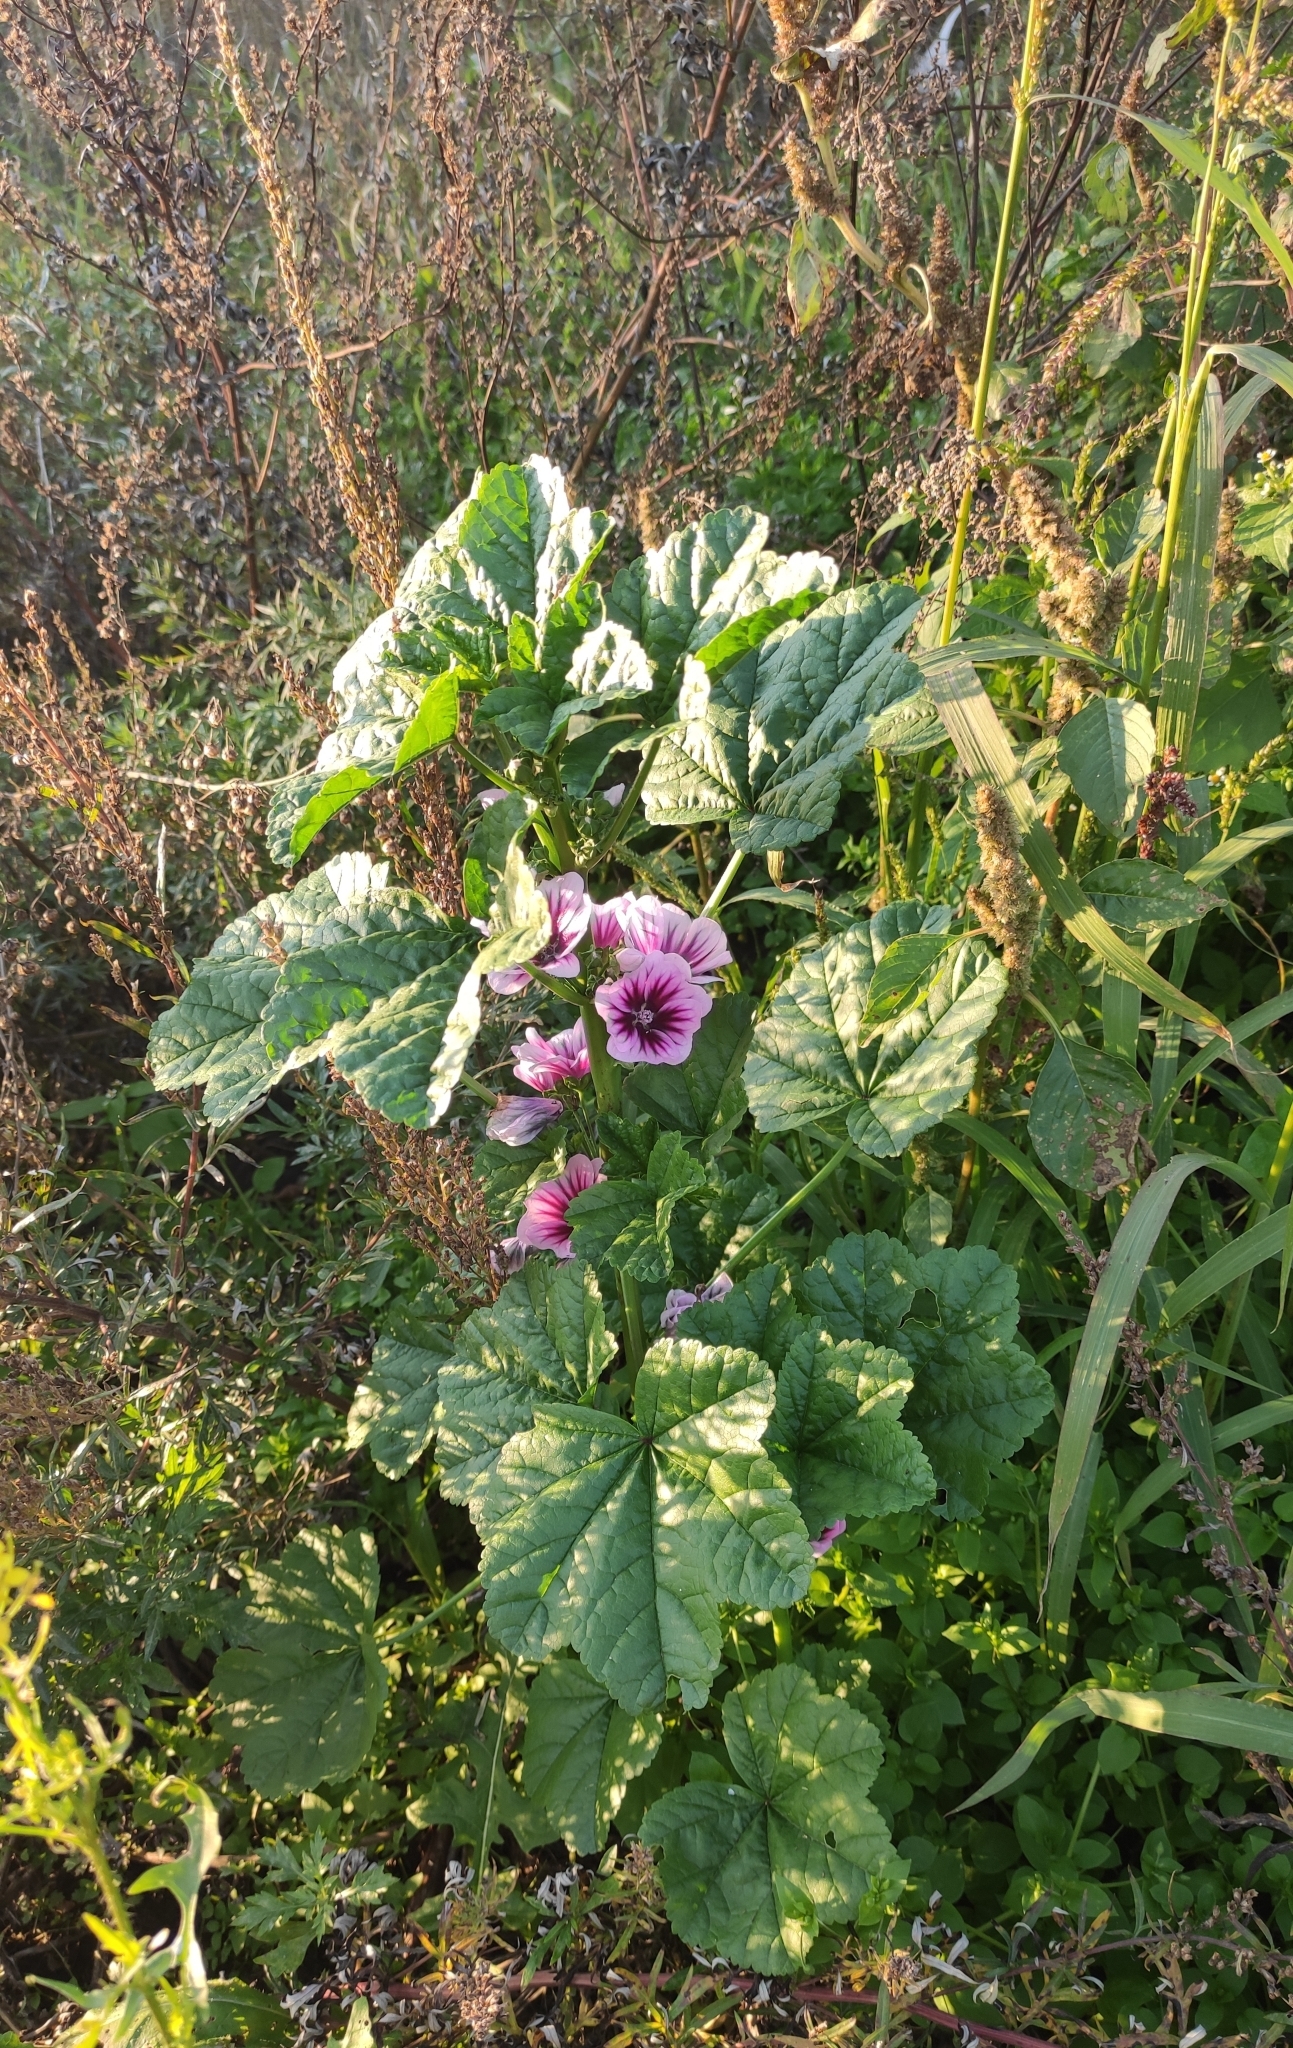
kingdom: Plantae
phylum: Tracheophyta
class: Magnoliopsida
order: Malvales
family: Malvaceae
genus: Malva
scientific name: Malva sylvestris
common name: Common mallow
